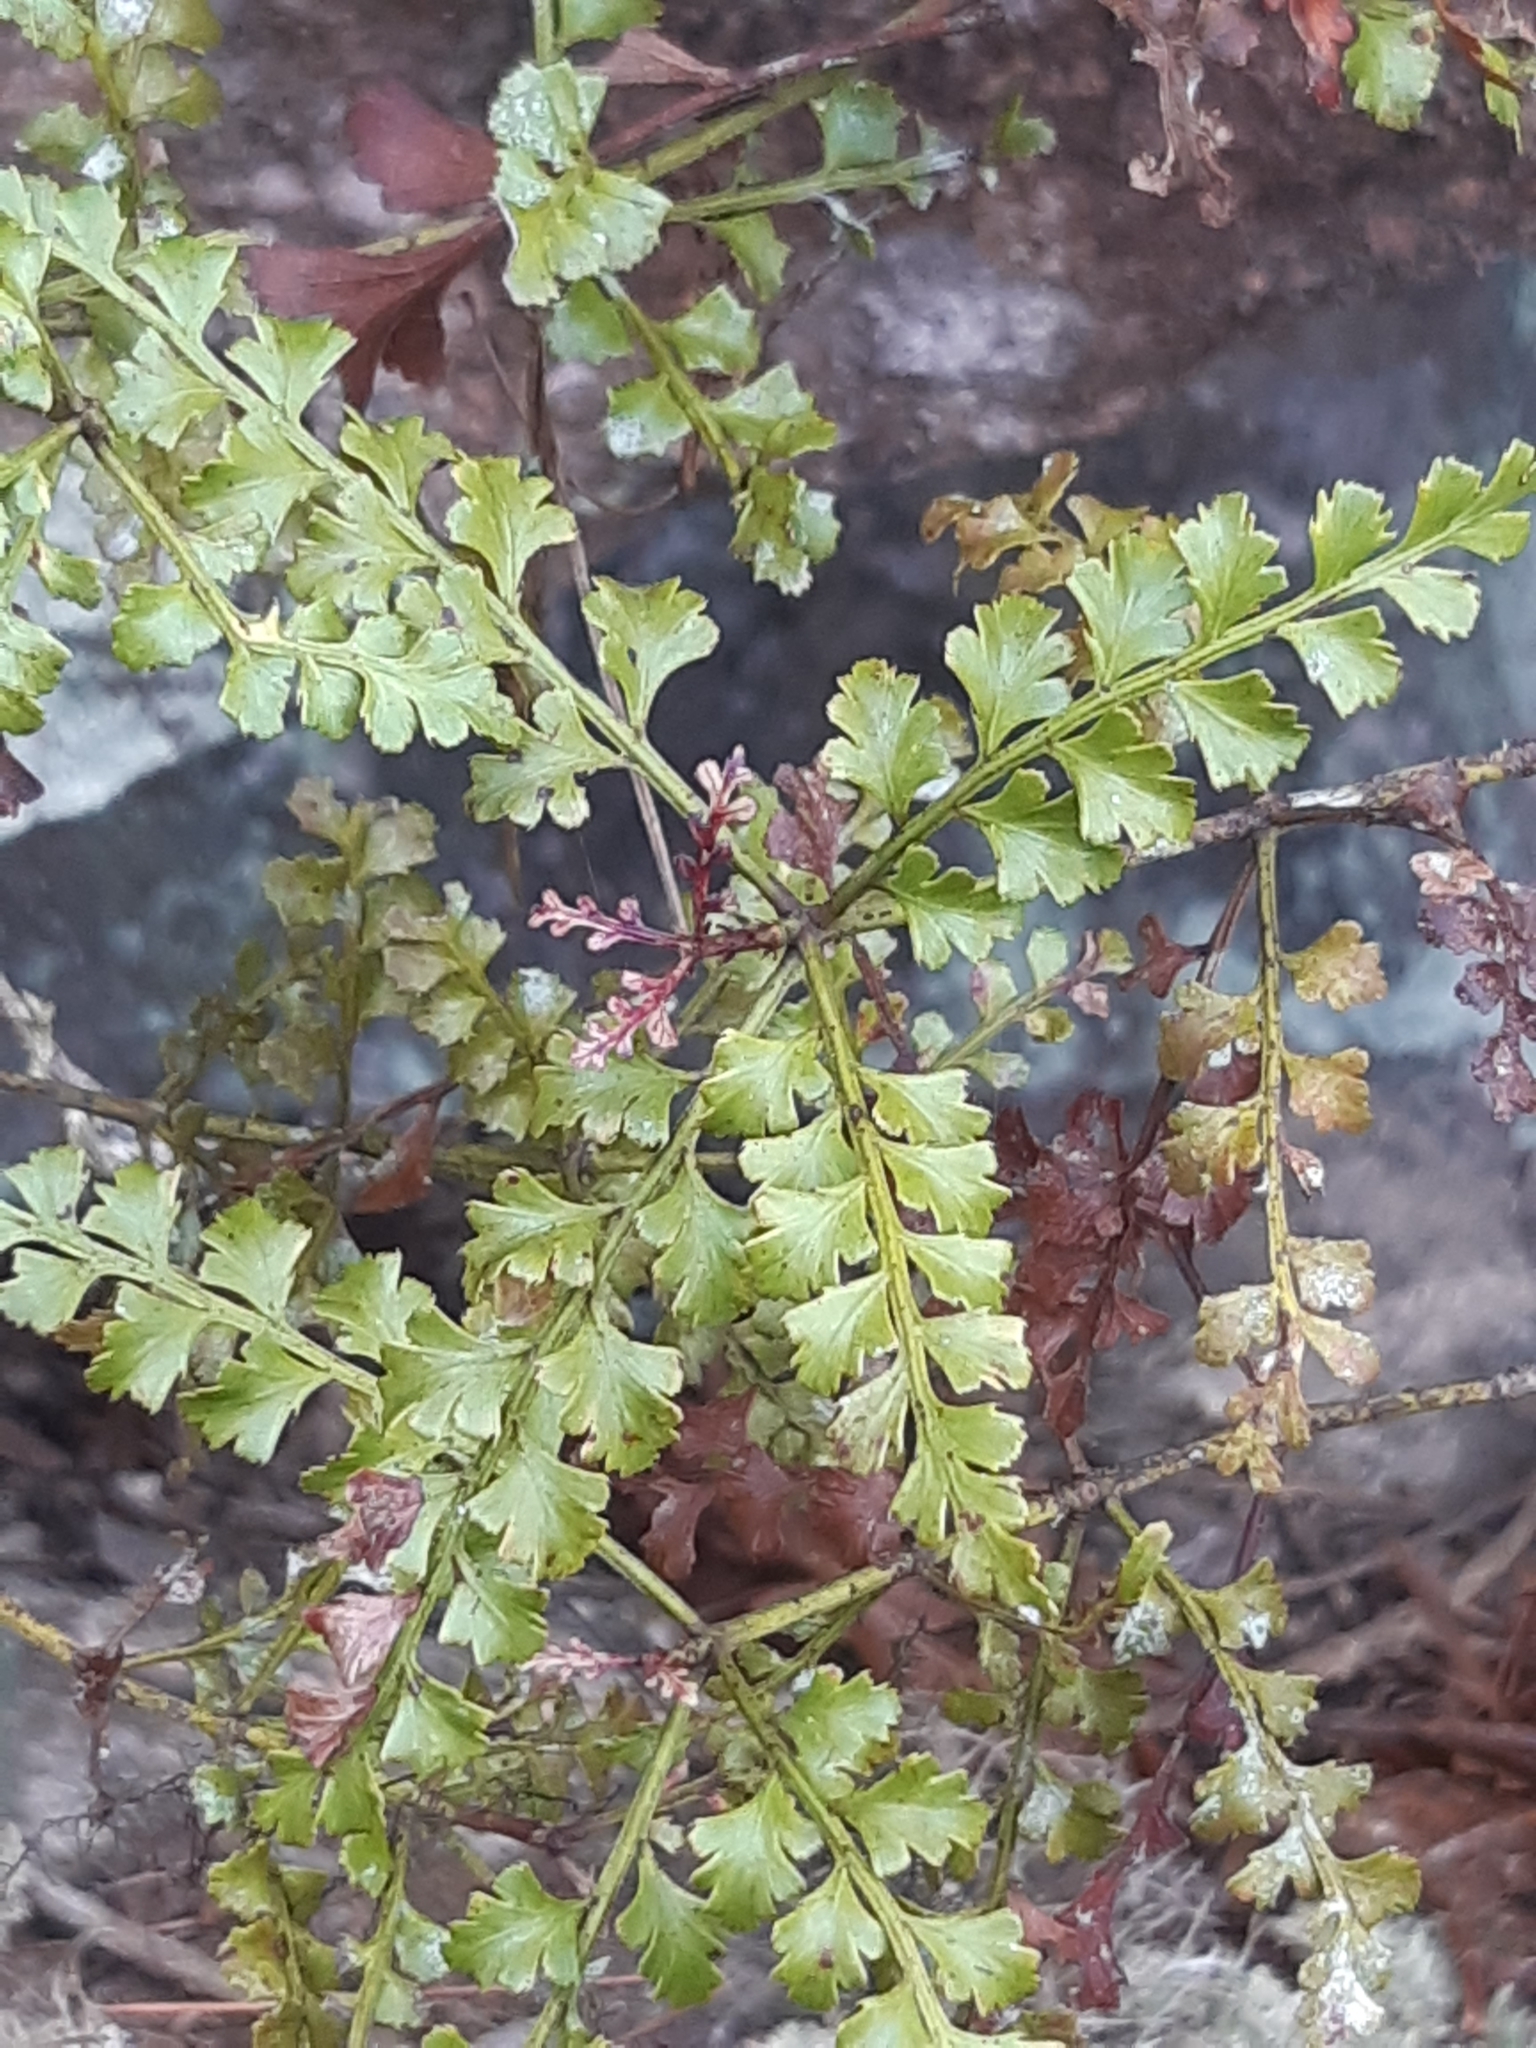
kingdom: Plantae
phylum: Tracheophyta
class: Pinopsida
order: Pinales
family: Phyllocladaceae
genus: Phyllocladus
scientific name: Phyllocladus trichomanoides
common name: Celery pine
